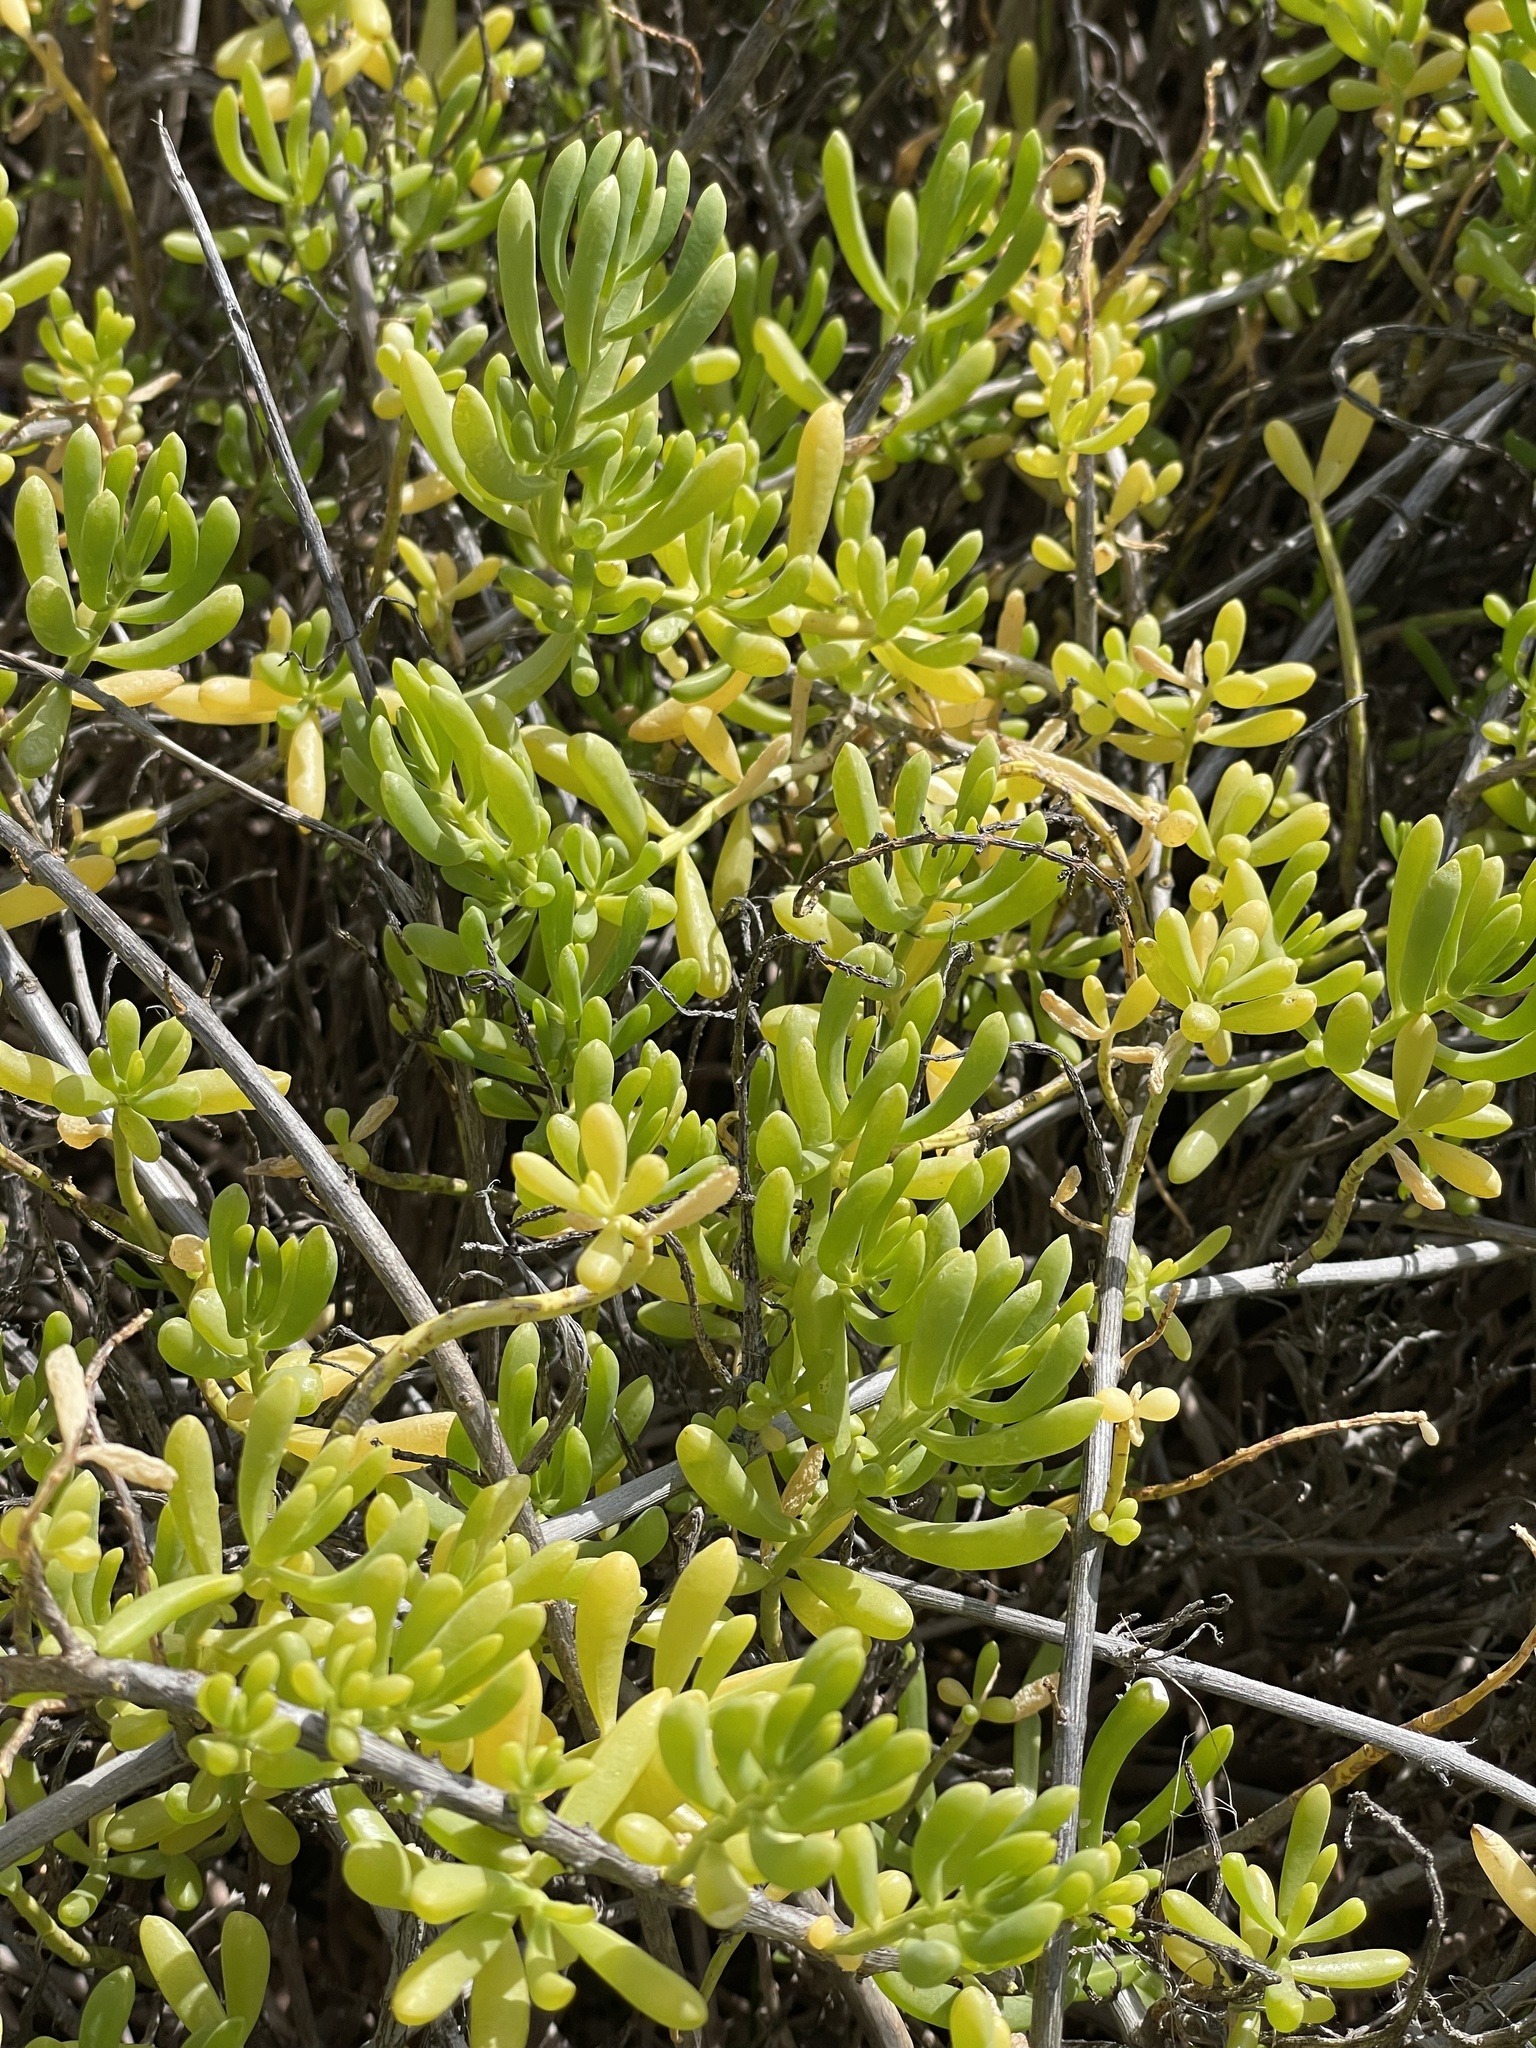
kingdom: Plantae
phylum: Tracheophyta
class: Magnoliopsida
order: Brassicales
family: Bataceae
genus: Batis
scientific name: Batis maritima
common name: Turtleweed
